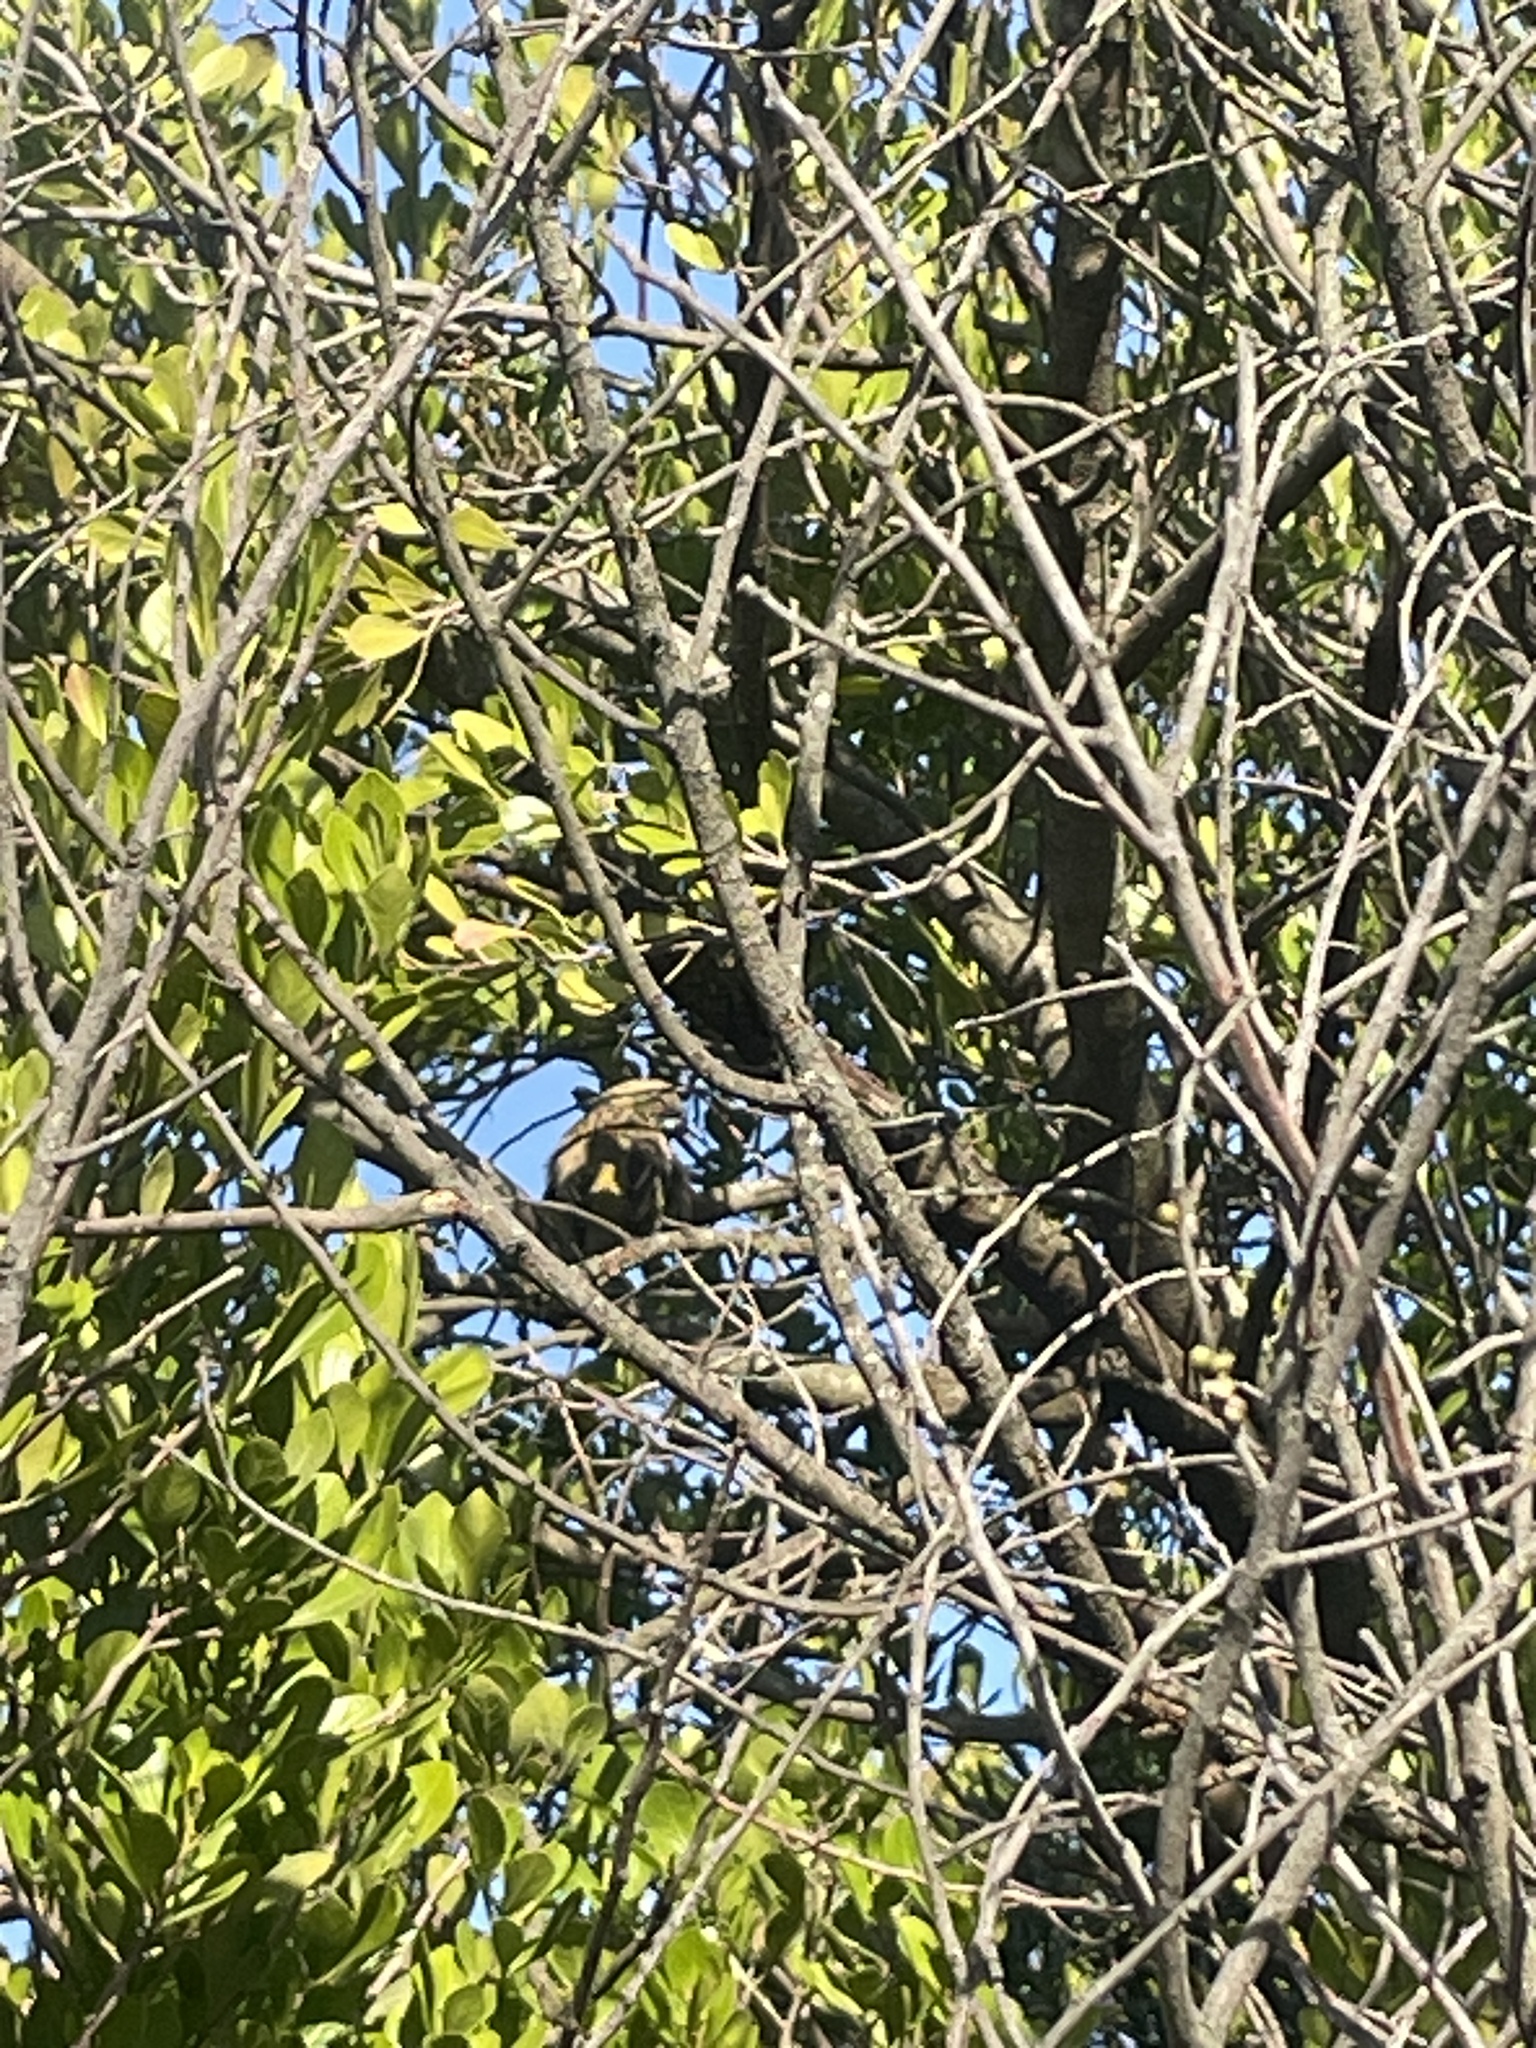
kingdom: Animalia
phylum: Chordata
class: Aves
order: Passeriformes
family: Ploceidae
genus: Ploceus
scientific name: Ploceus velatus
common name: Southern masked weaver
